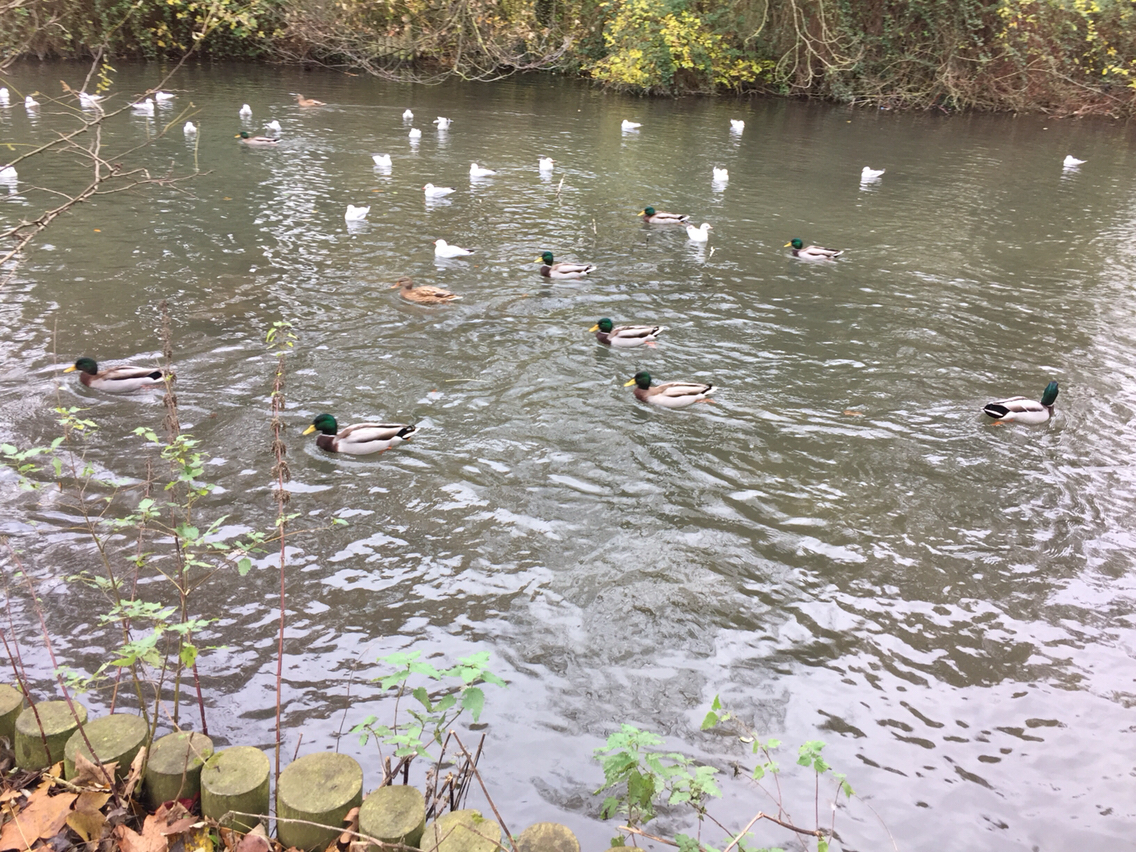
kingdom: Animalia
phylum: Chordata
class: Aves
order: Anseriformes
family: Anatidae
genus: Anas
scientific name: Anas platyrhynchos
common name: Mallard
